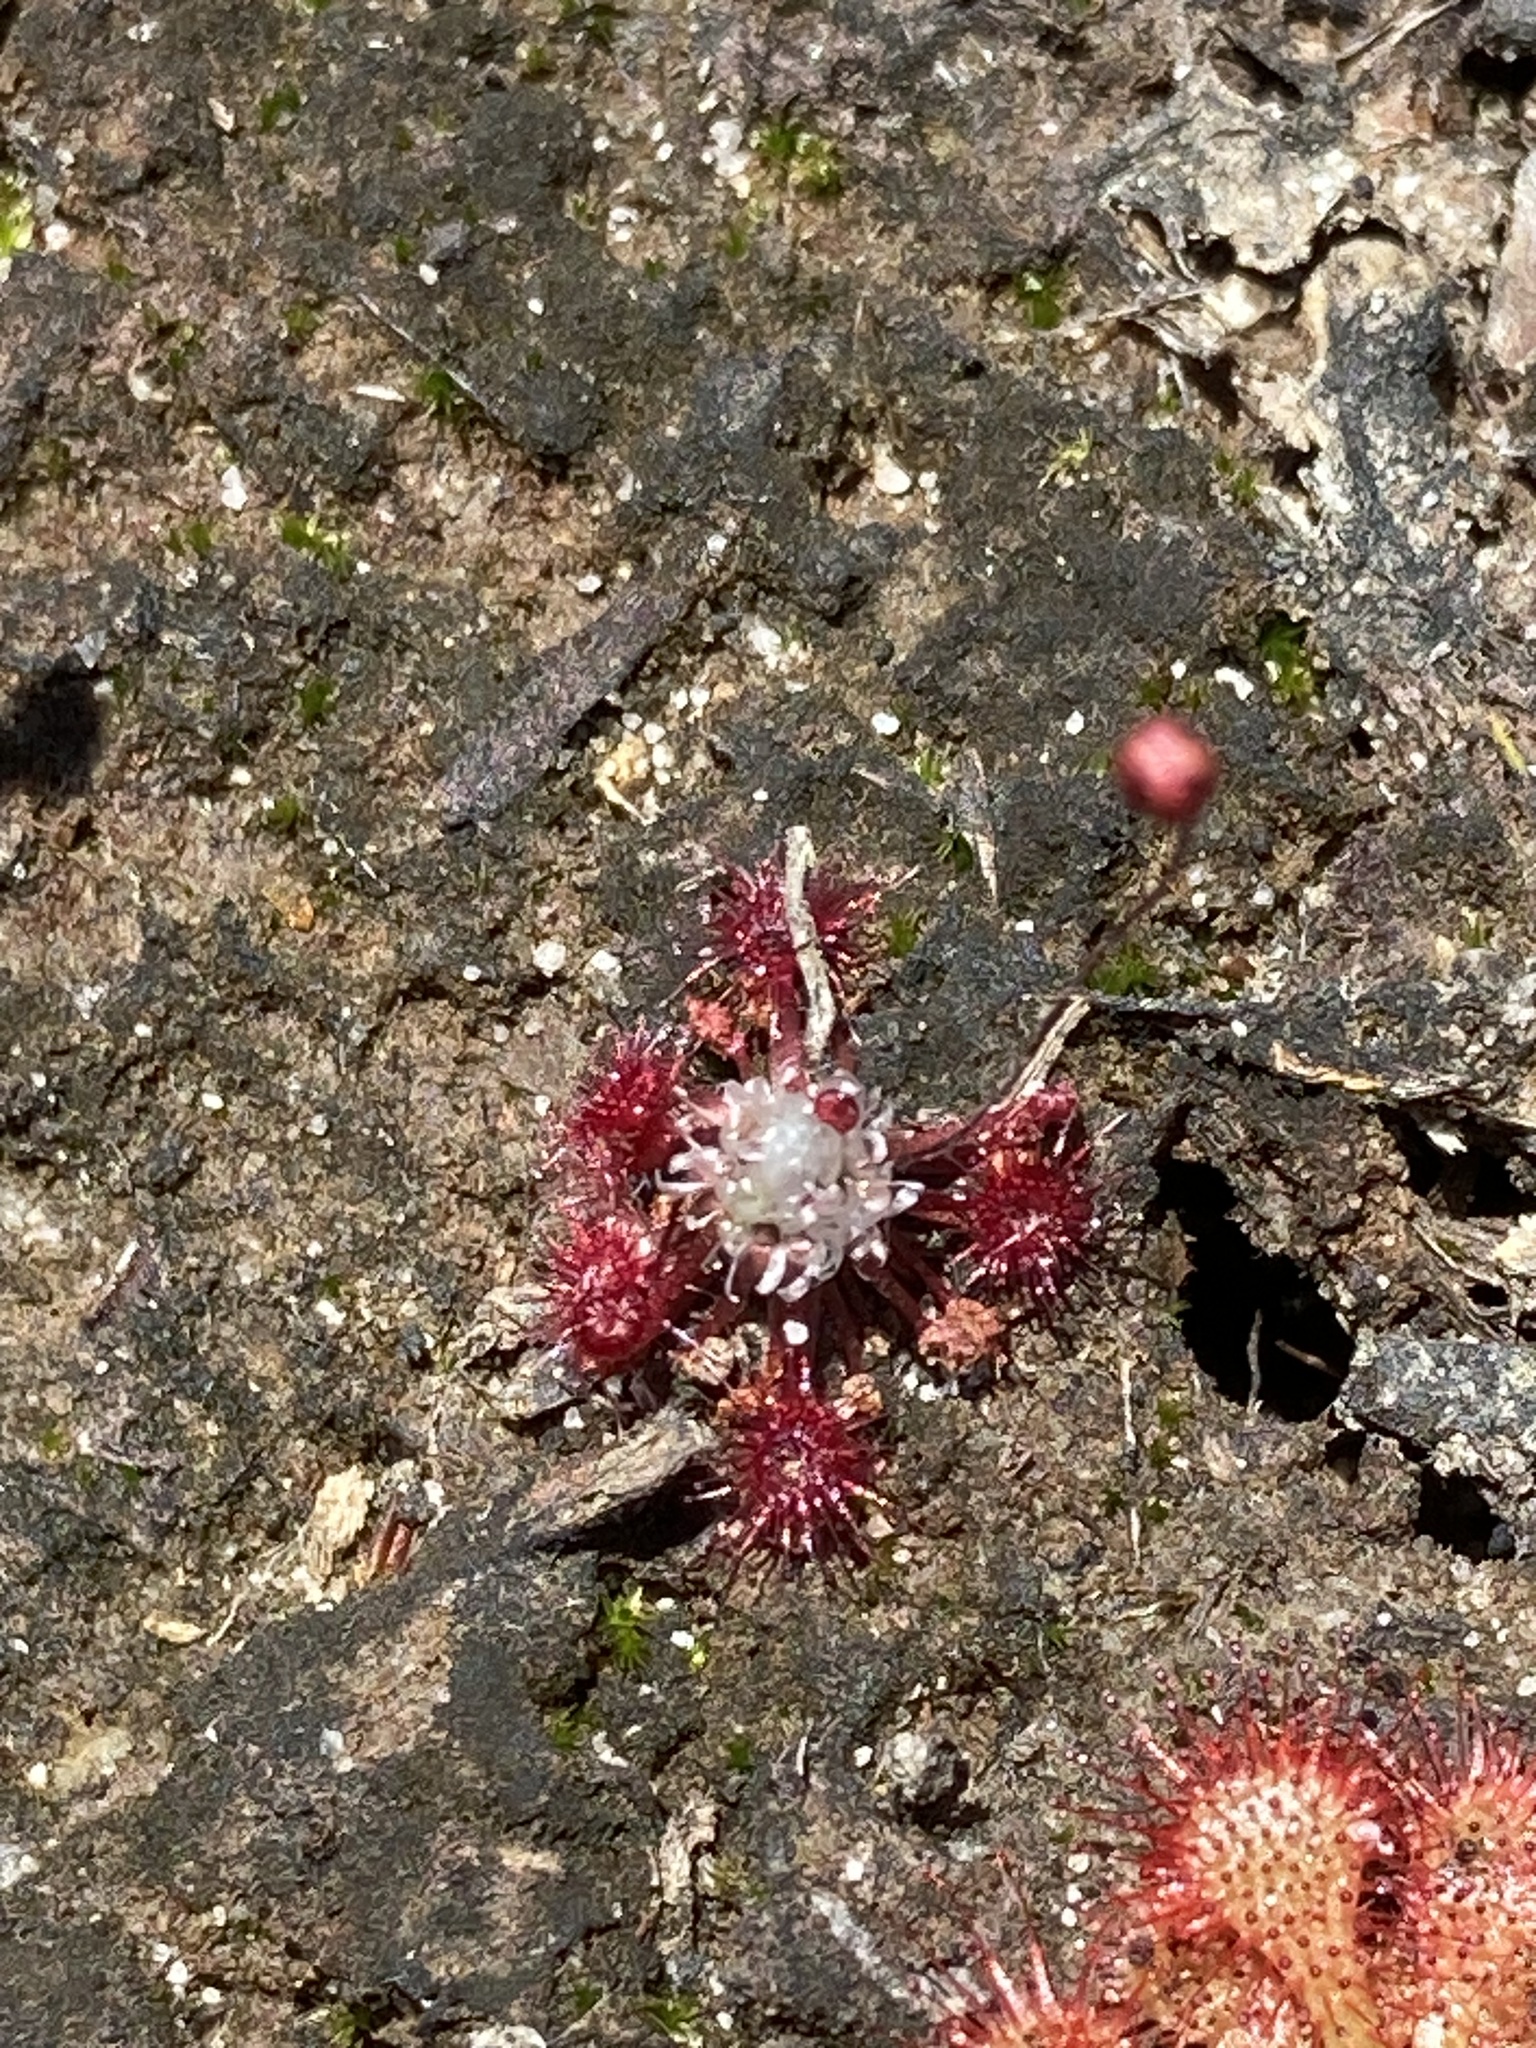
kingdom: Plantae
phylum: Tracheophyta
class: Magnoliopsida
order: Caryophyllales
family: Droseraceae
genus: Drosera
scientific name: Drosera pygmaea
